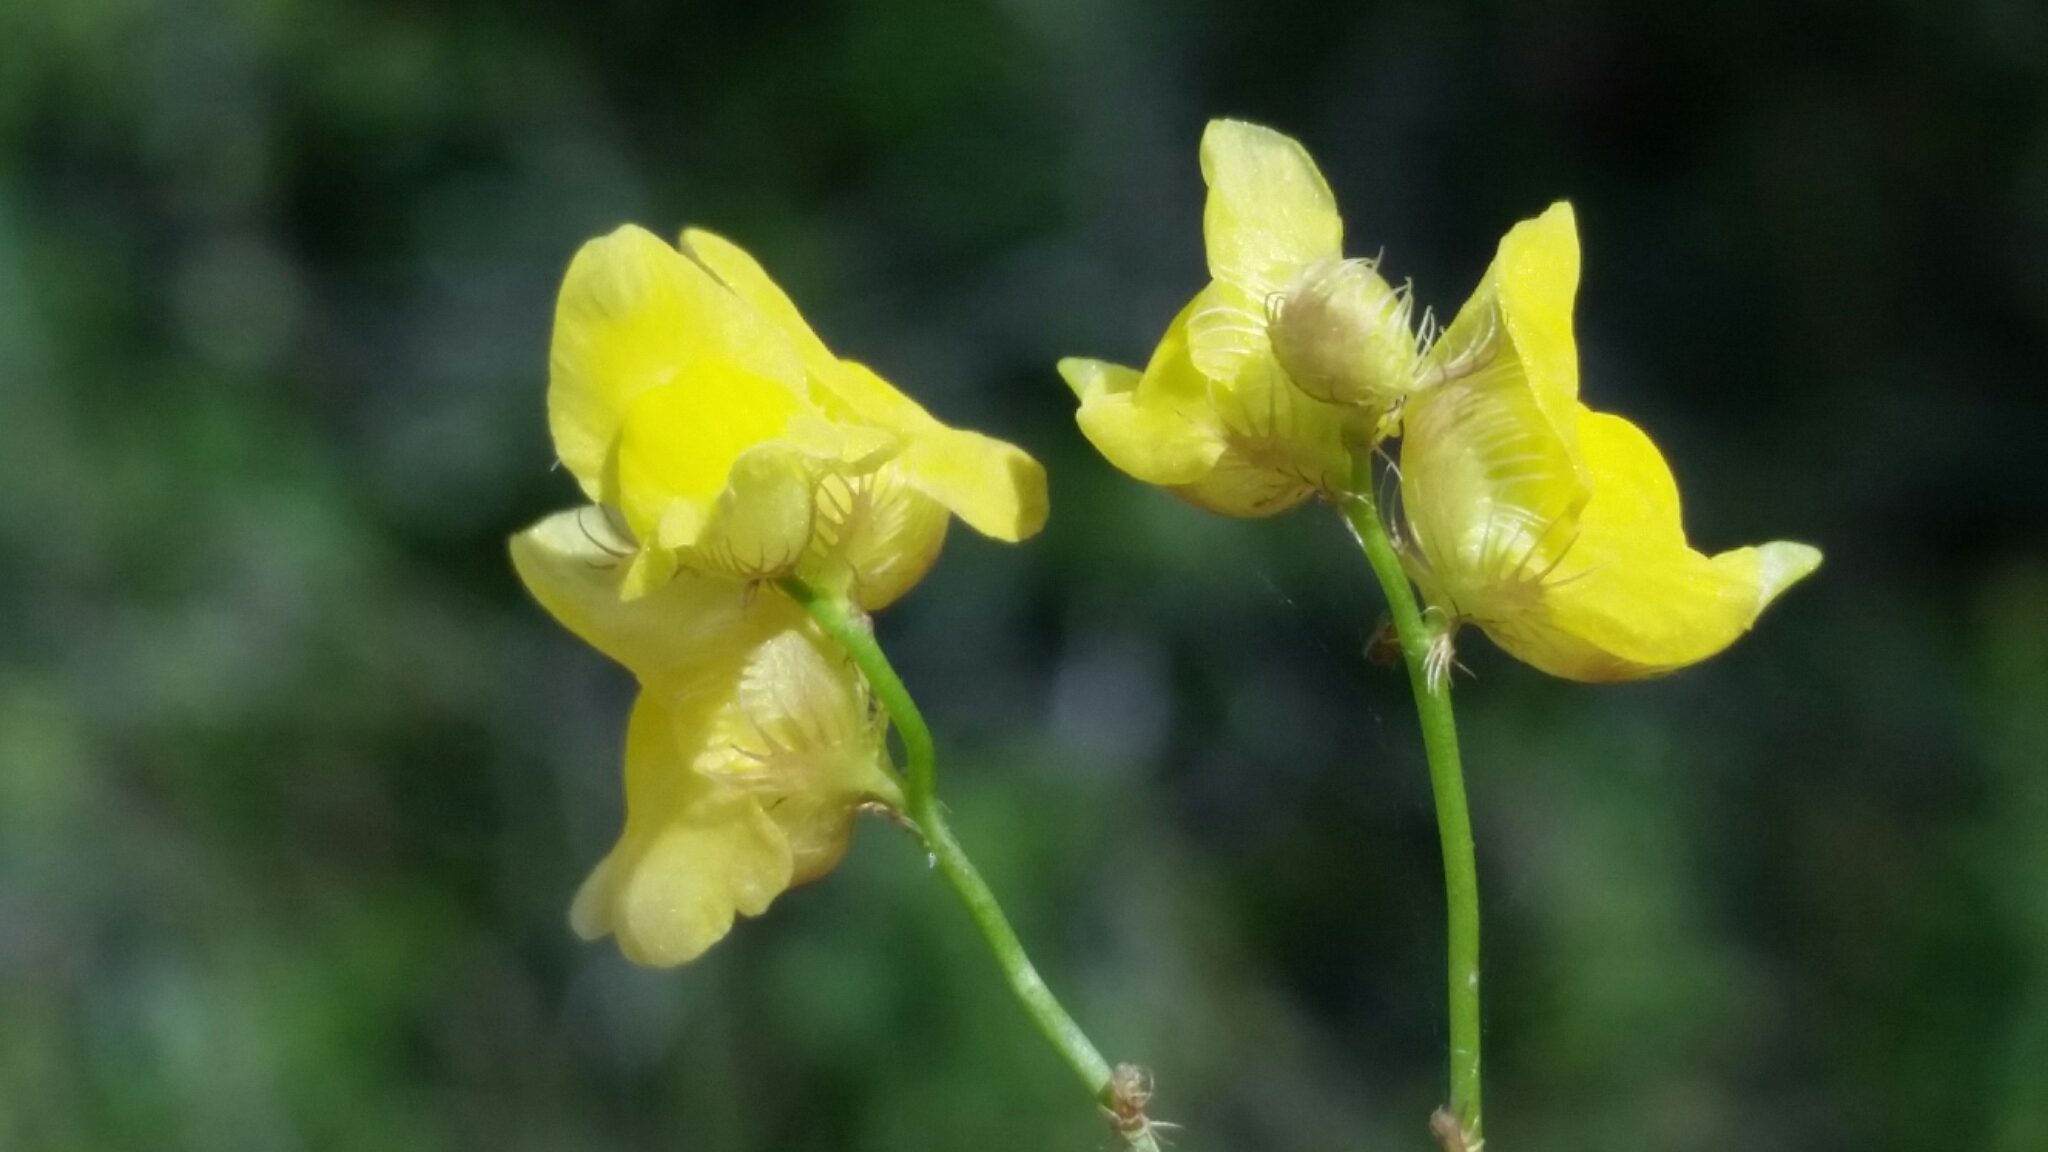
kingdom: Plantae
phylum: Tracheophyta
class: Magnoliopsida
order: Lamiales
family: Lentibulariaceae
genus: Utricularia
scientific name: Utricularia simulans
